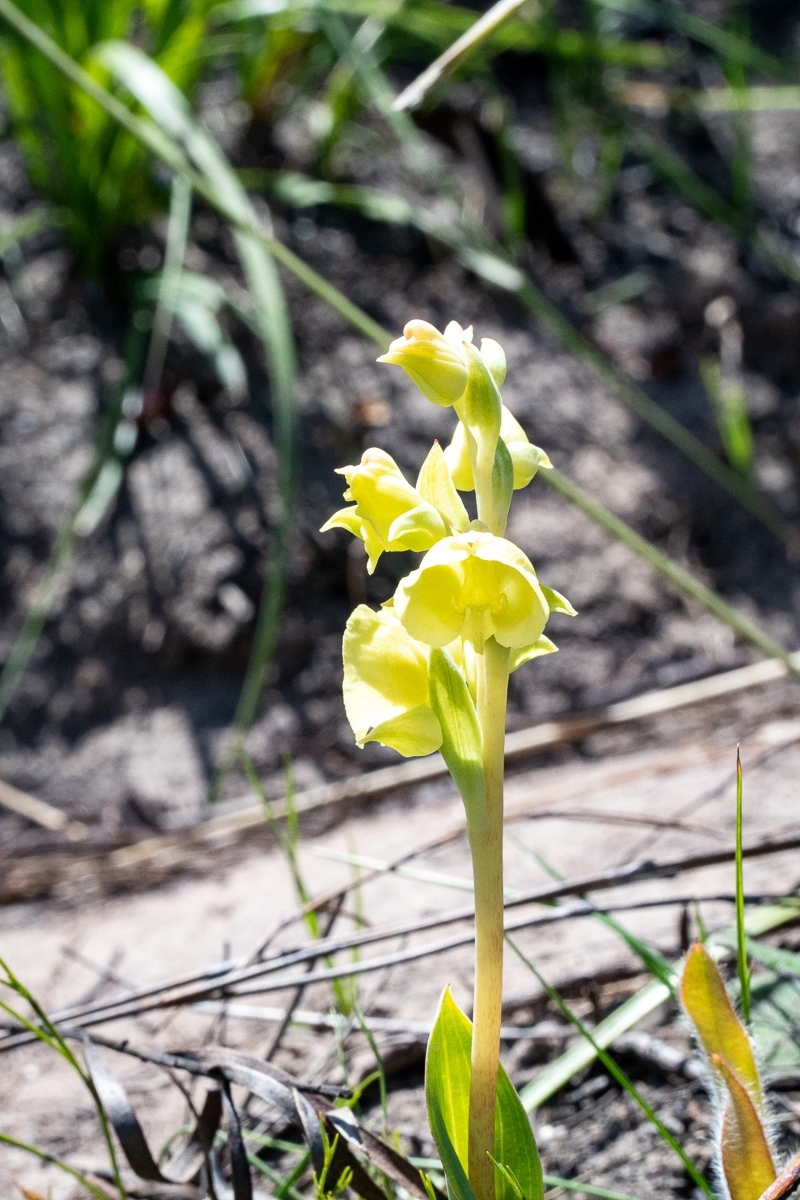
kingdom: Plantae
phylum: Tracheophyta
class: Liliopsida
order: Asparagales
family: Orchidaceae
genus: Pterygodium
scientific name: Pterygodium catholicum
